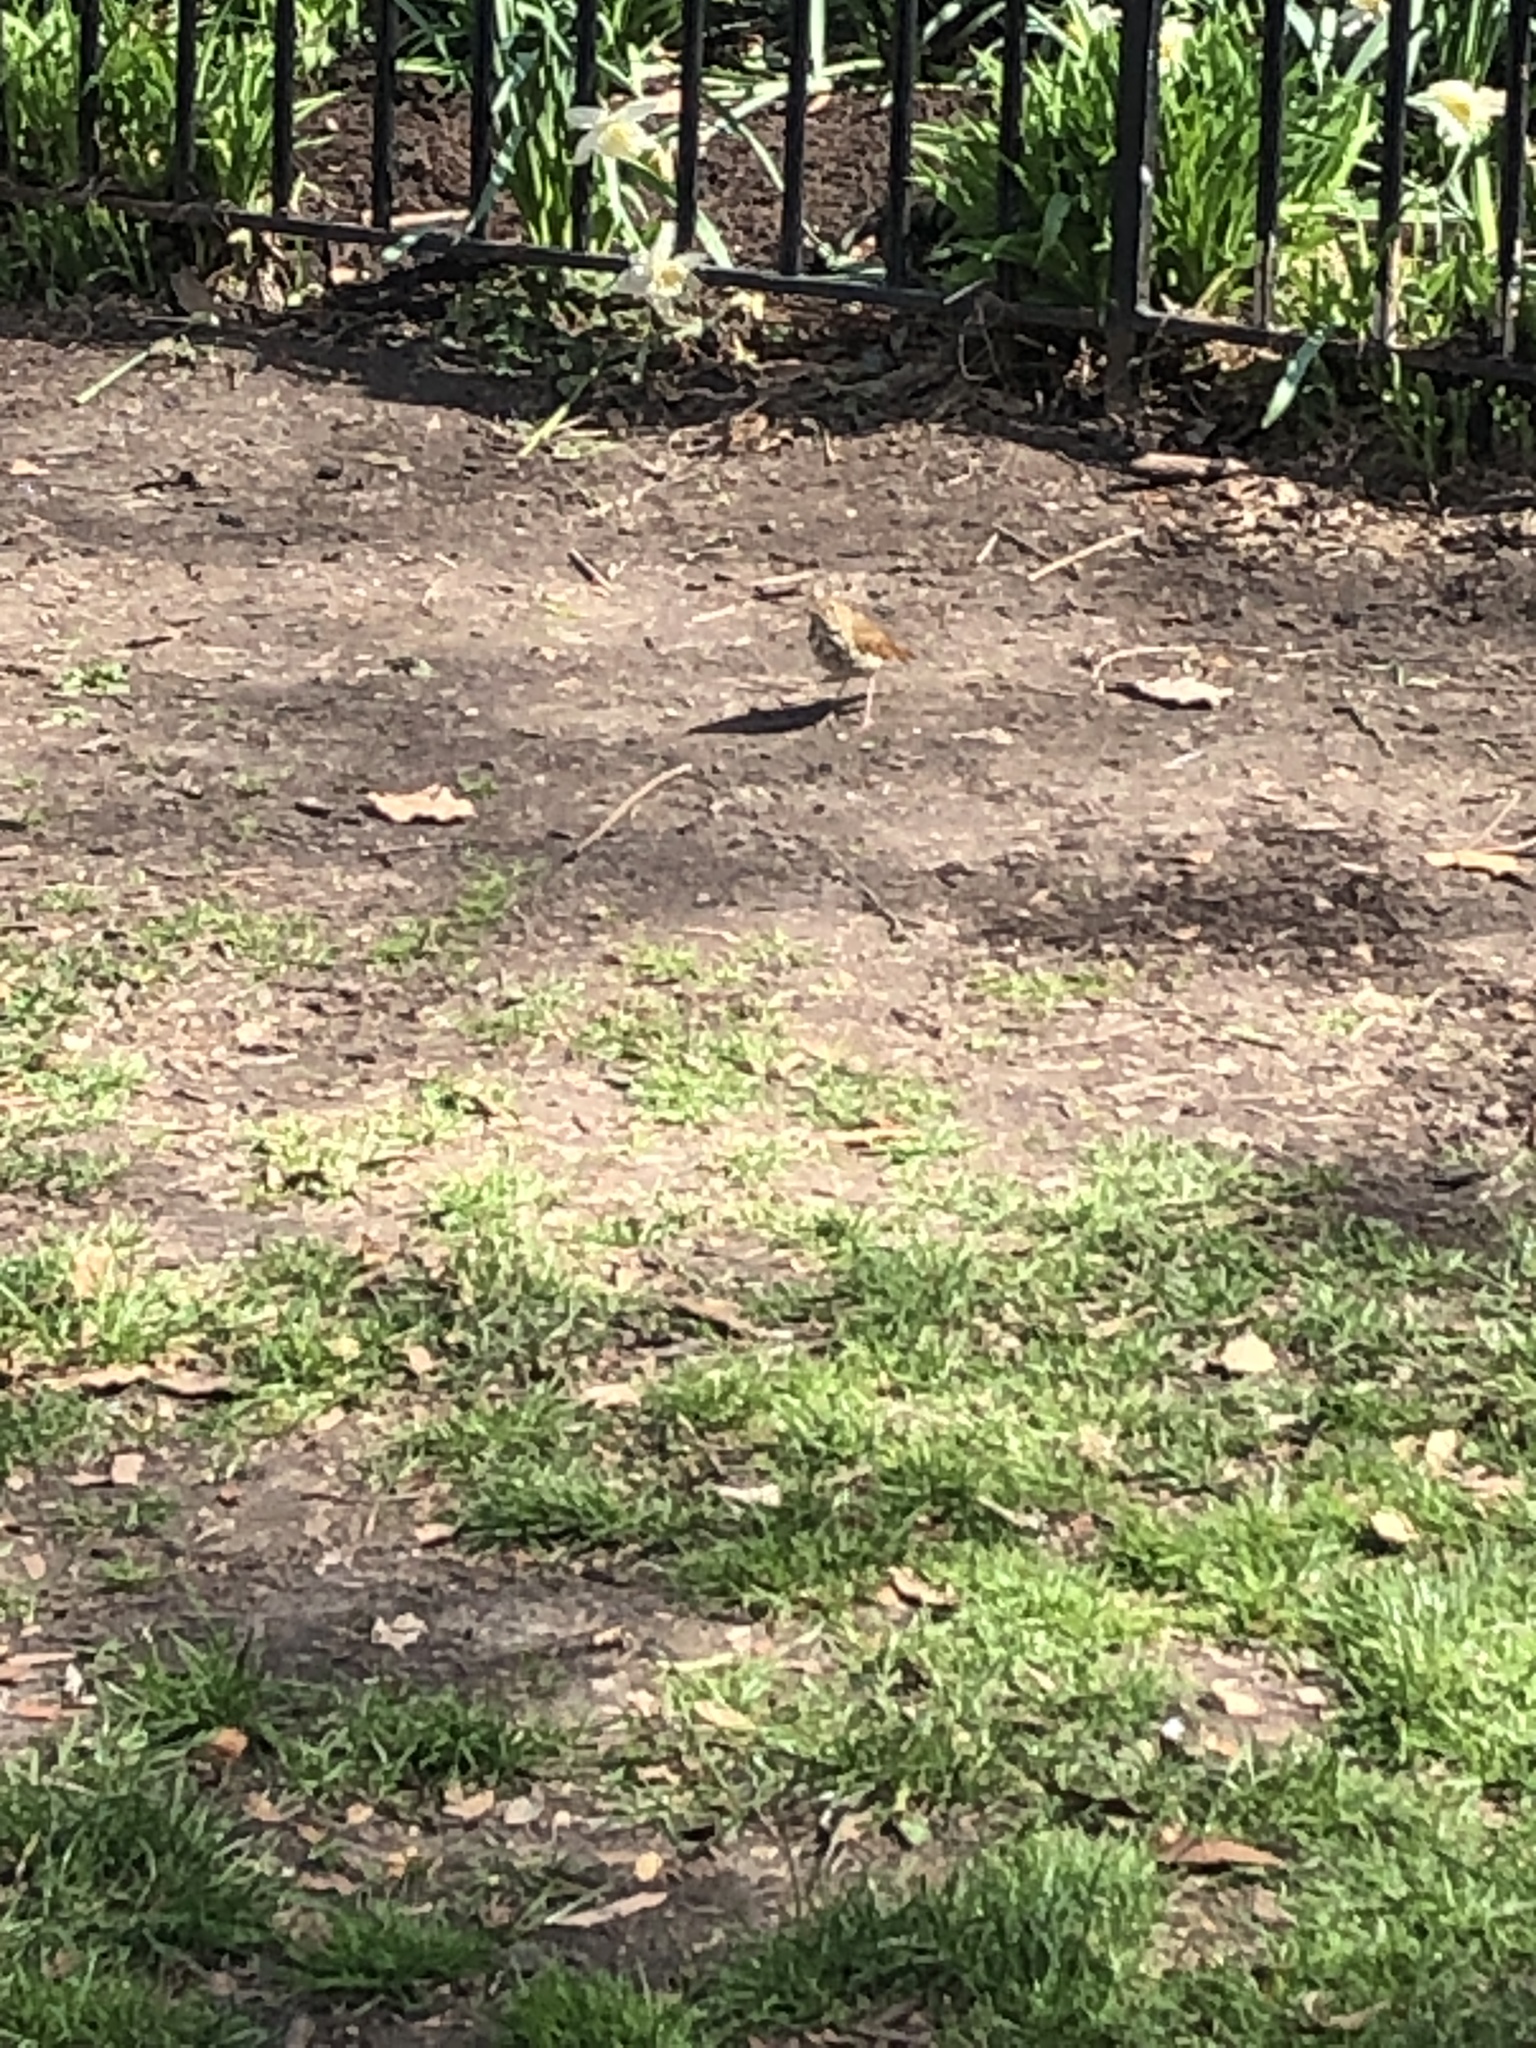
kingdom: Animalia
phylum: Chordata
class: Aves
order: Passeriformes
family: Turdidae
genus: Catharus
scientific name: Catharus guttatus
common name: Hermit thrush
